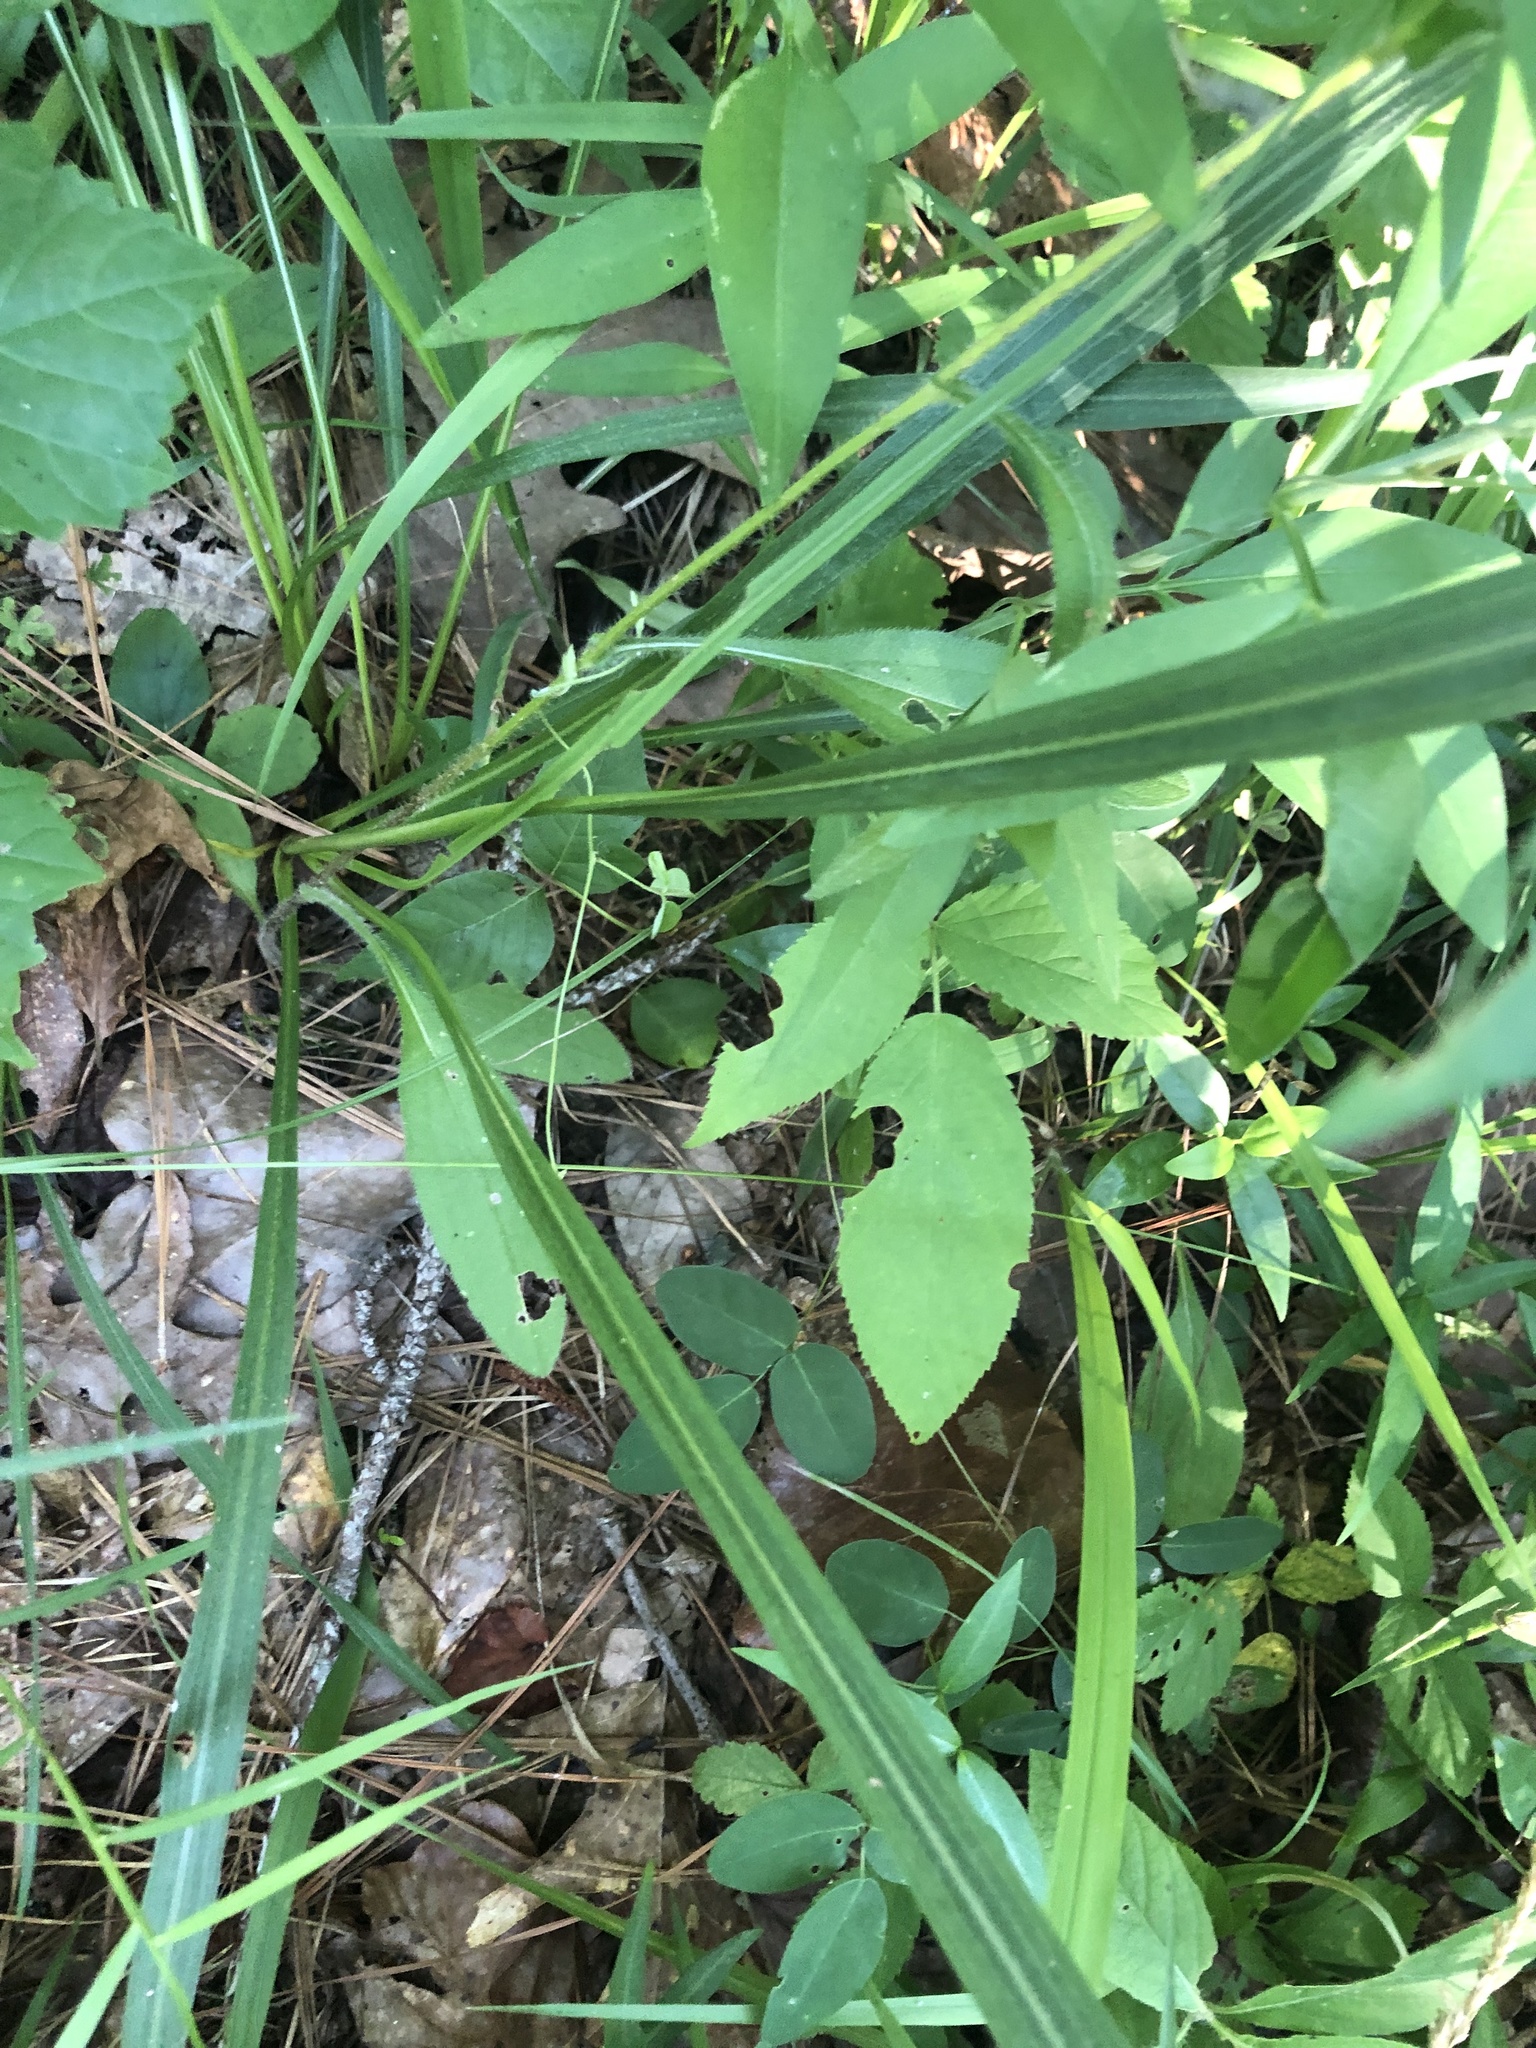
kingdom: Plantae
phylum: Tracheophyta
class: Magnoliopsida
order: Asterales
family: Asteraceae
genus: Liatris
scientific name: Liatris pycnostachya
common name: Cattail gayfeather
